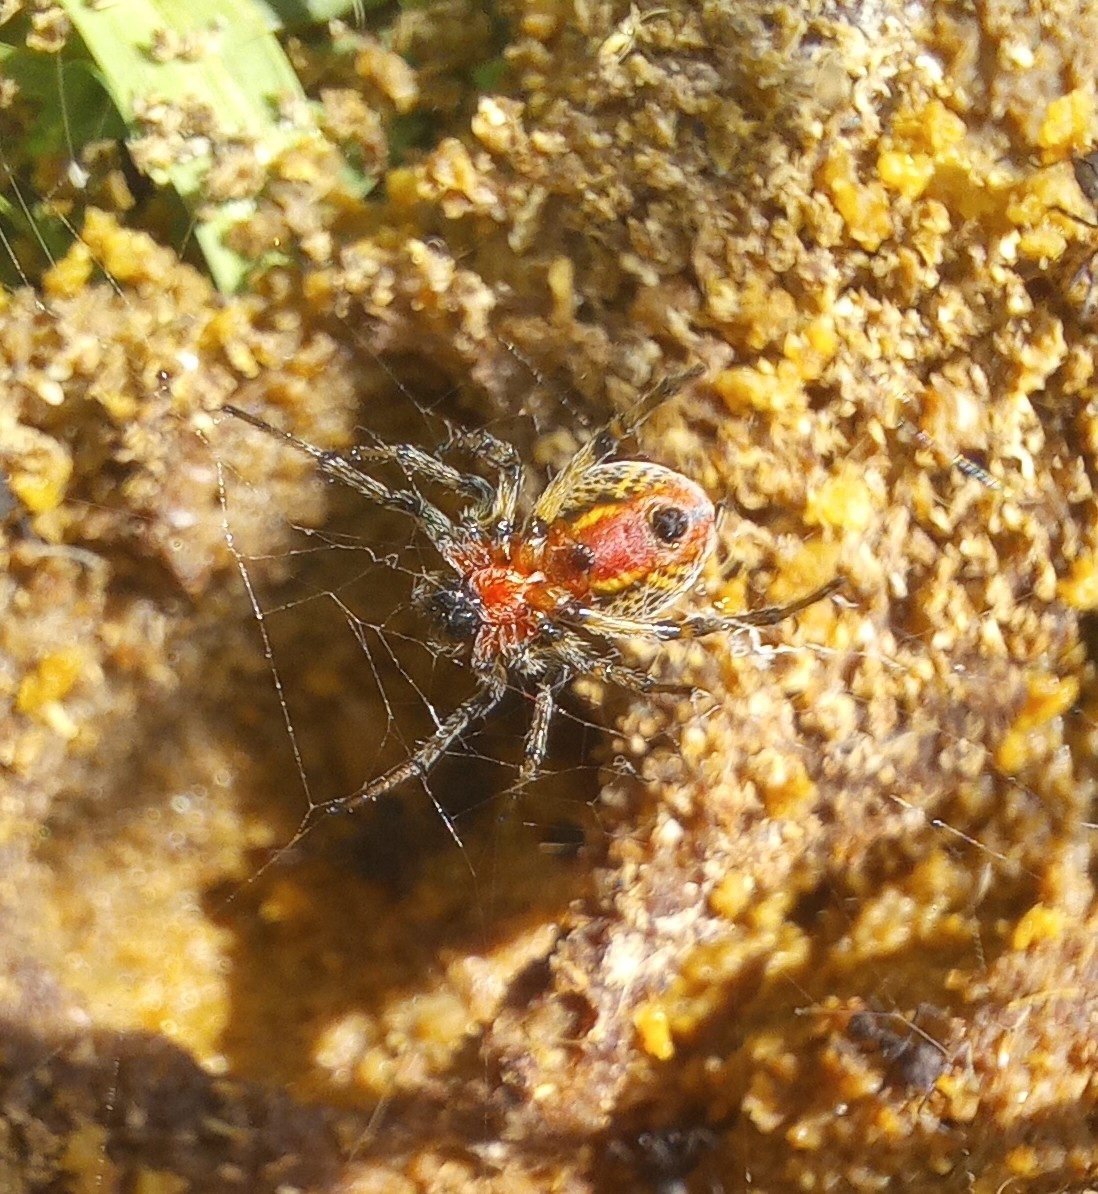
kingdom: Animalia
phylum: Arthropoda
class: Arachnida
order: Araneae
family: Araneidae
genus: Alpaida
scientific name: Alpaida versicolor
